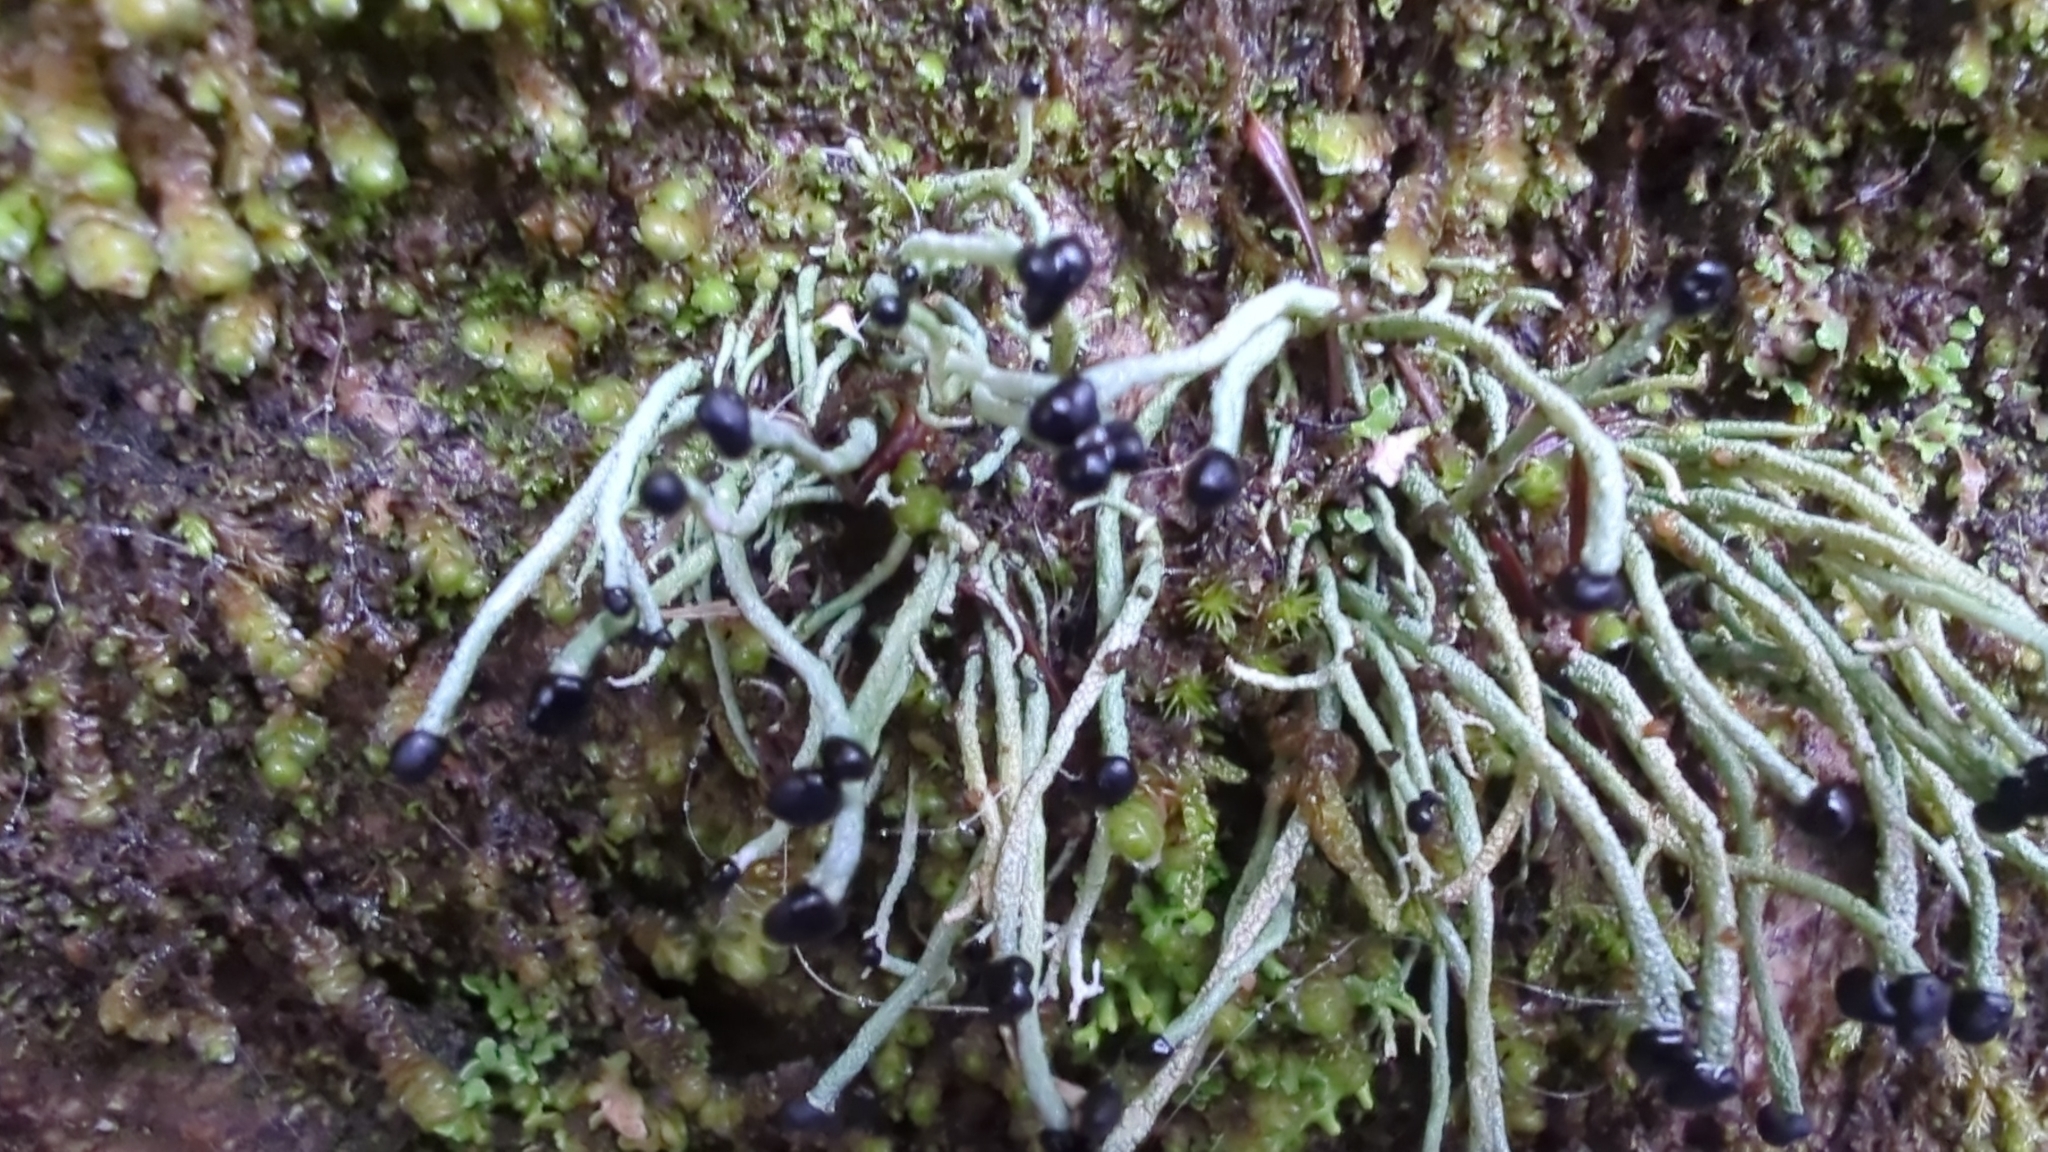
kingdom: Fungi
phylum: Ascomycota
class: Lecanoromycetes
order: Lecanorales
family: Cladoniaceae
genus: Pilophorus
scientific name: Pilophorus acicularis
